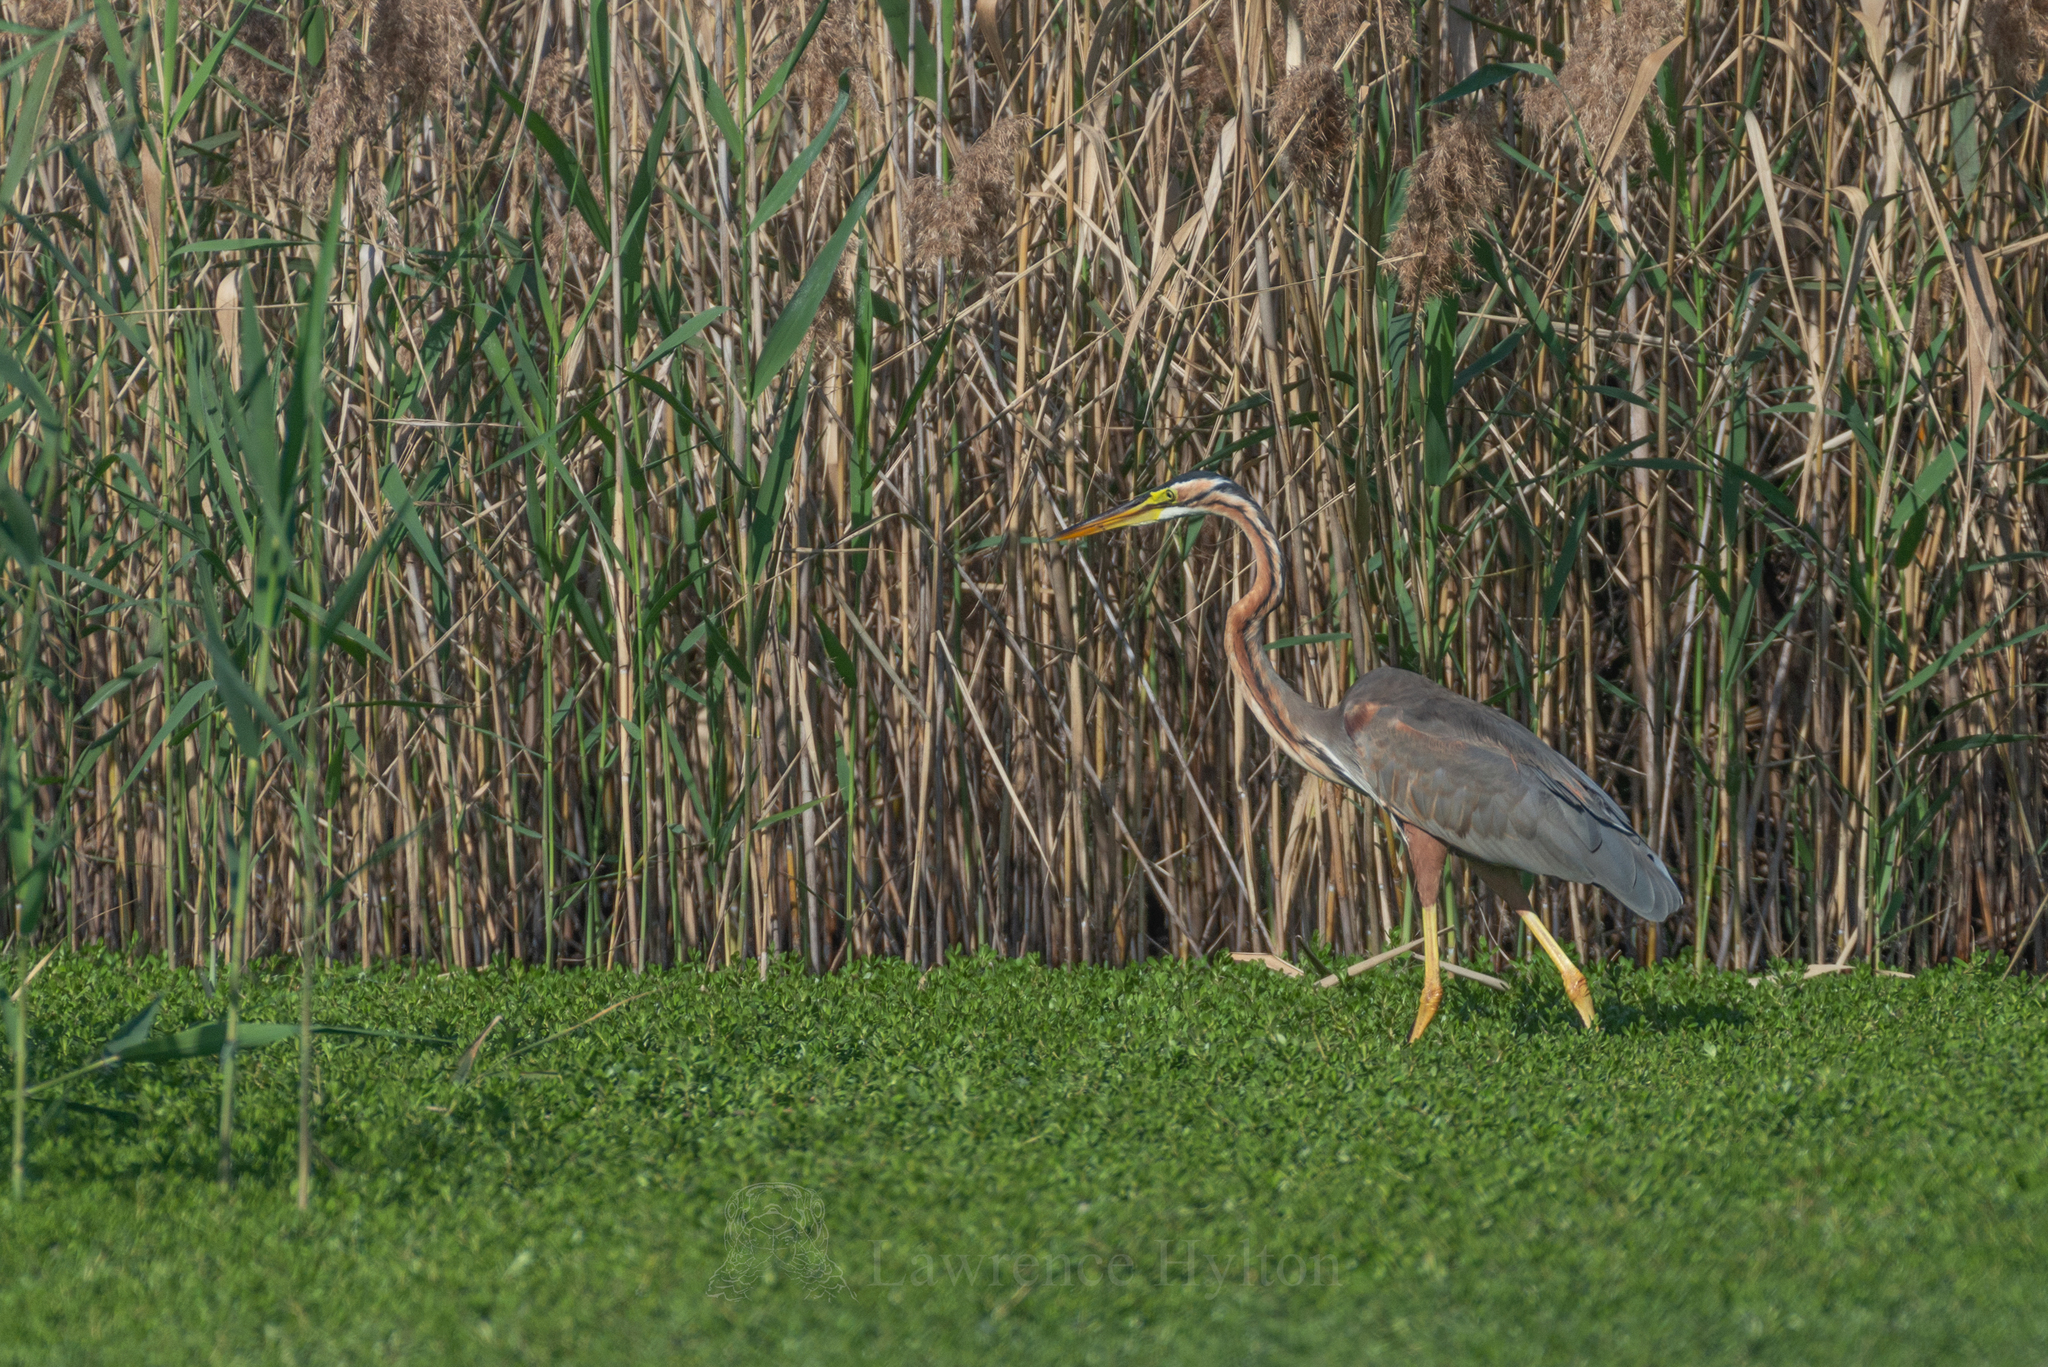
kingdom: Animalia
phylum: Chordata
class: Aves
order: Pelecaniformes
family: Ardeidae
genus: Ardea
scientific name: Ardea purpurea
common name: Purple heron
